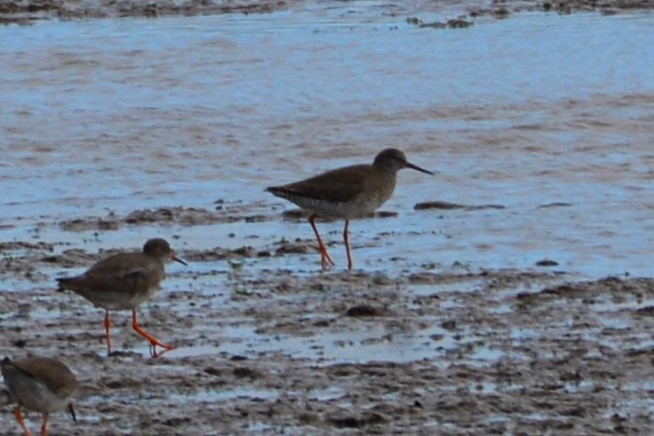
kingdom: Animalia
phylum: Chordata
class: Aves
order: Charadriiformes
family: Scolopacidae
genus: Tringa
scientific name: Tringa totanus
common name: Common redshank
